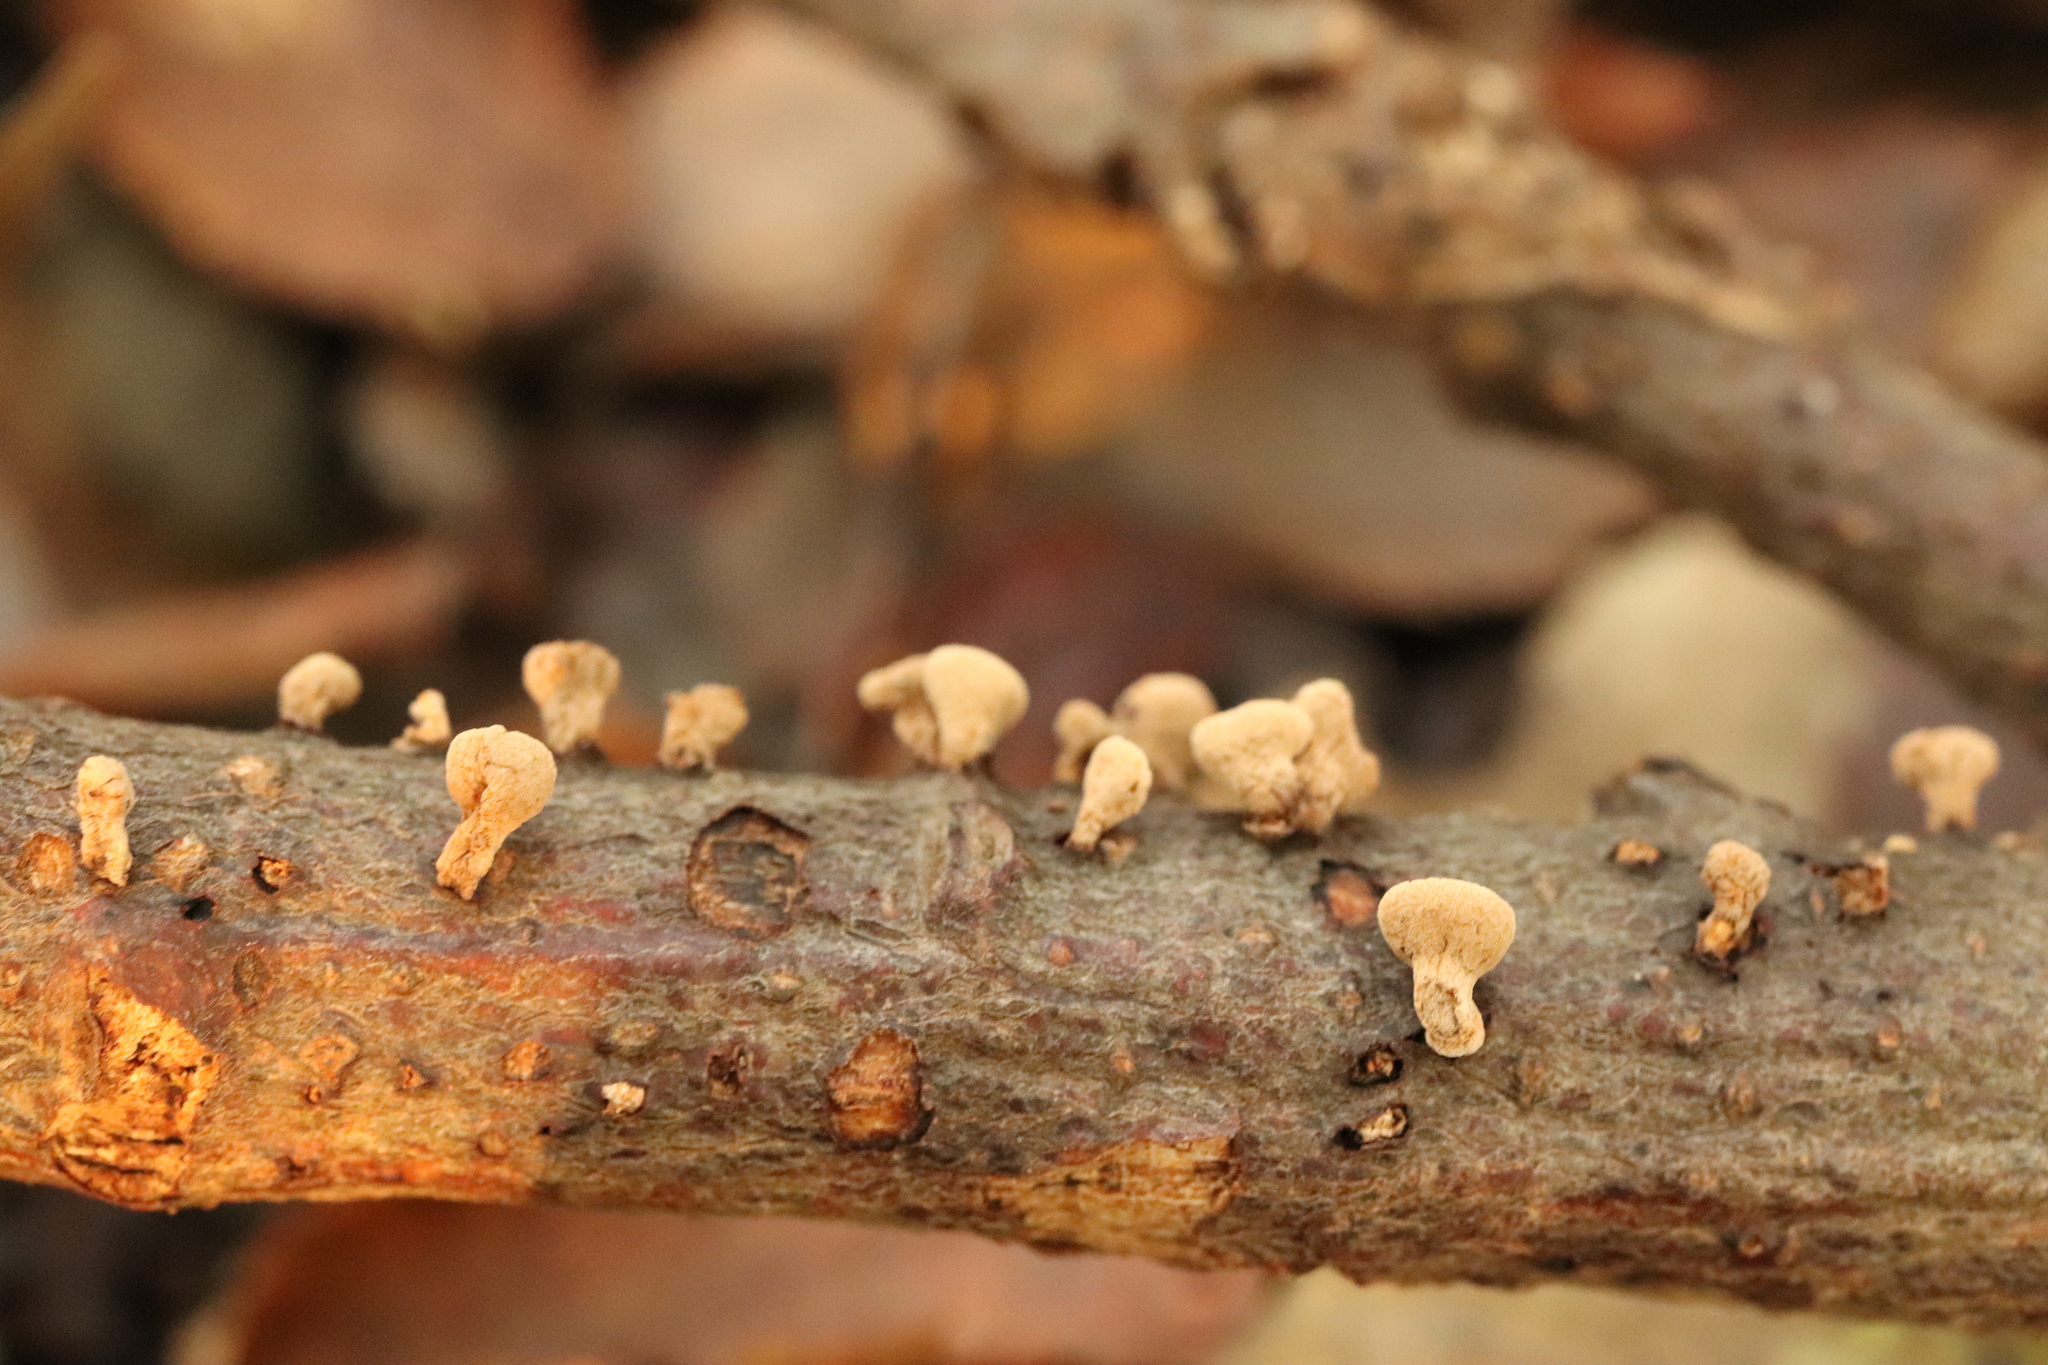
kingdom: Fungi
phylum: Basidiomycota
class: Agaricomycetes
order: Agaricales
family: Schizophyllaceae
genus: Porodisculus
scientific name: Porodisculus pendulus
